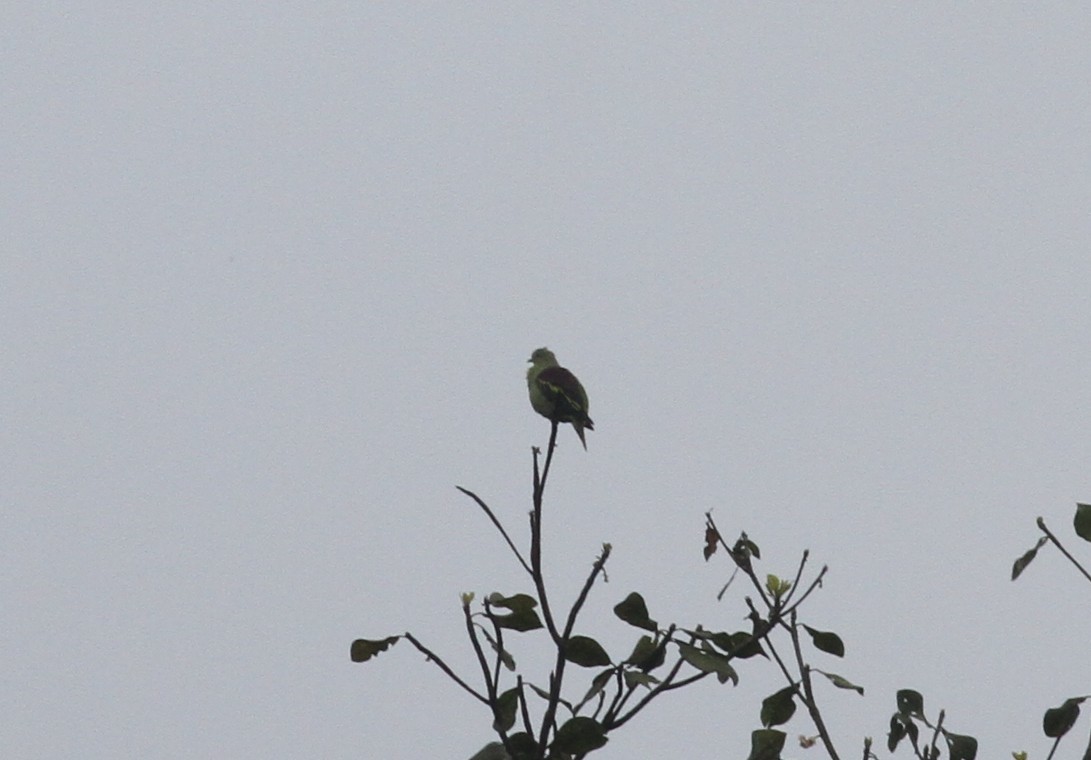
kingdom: Animalia
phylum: Chordata
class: Aves
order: Columbiformes
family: Columbidae
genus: Treron
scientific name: Treron affinis
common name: Grey-fronted green pigeon
